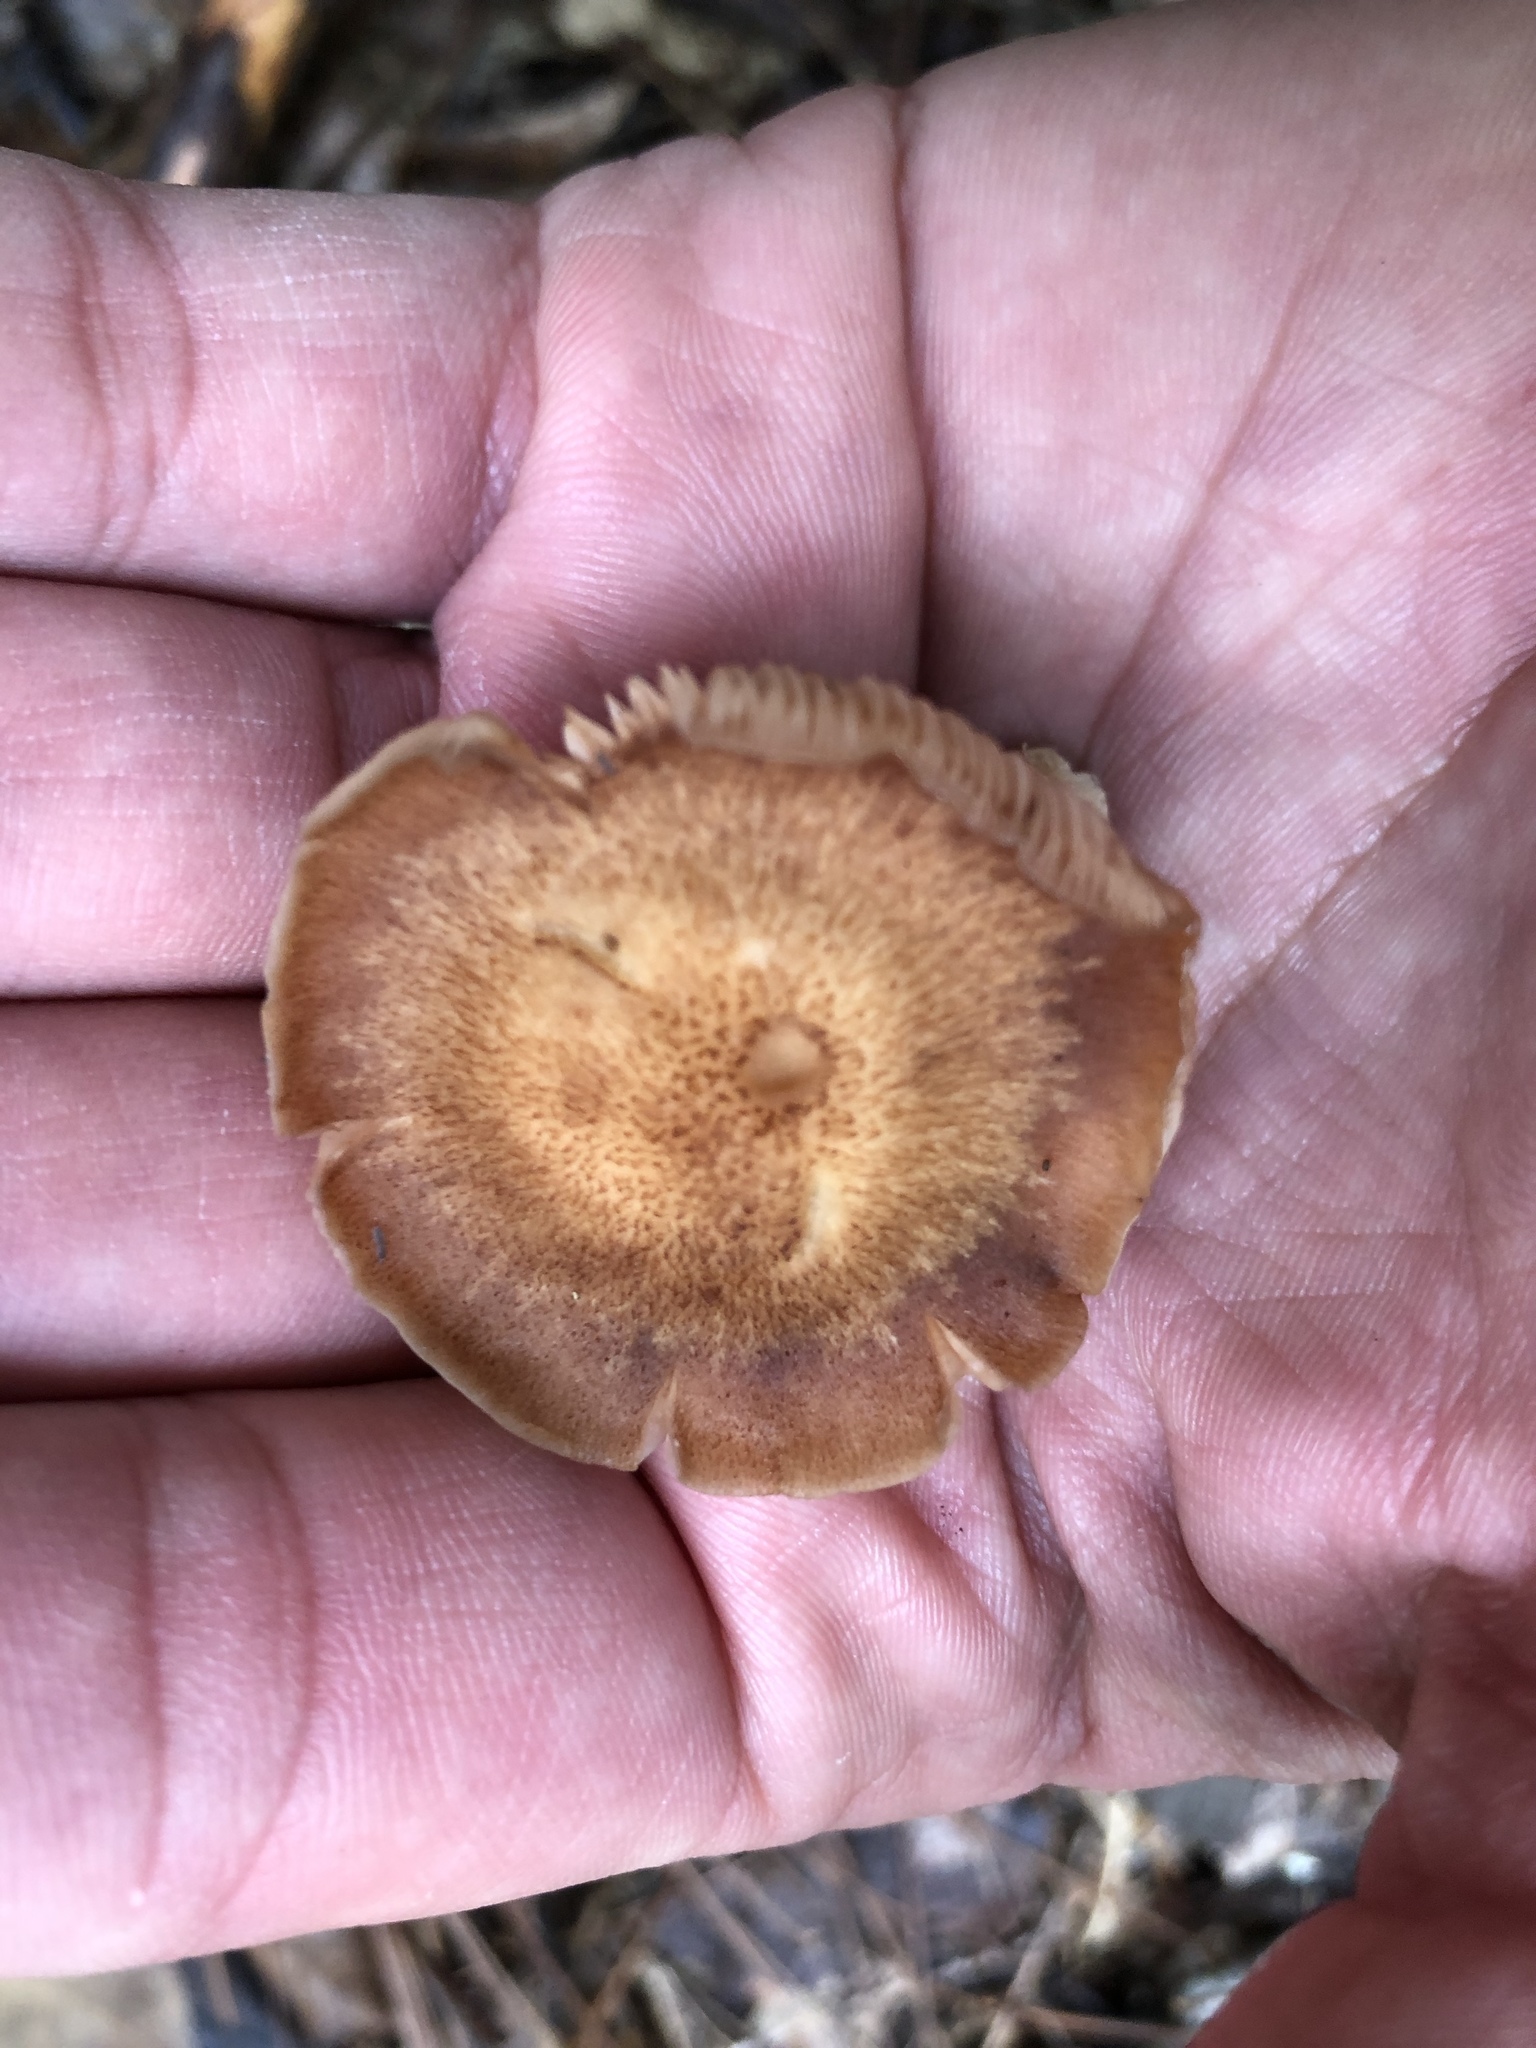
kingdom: Fungi
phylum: Basidiomycota
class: Agaricomycetes
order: Agaricales
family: Physalacriaceae
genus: Desarmillaria
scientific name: Desarmillaria caespitosa
